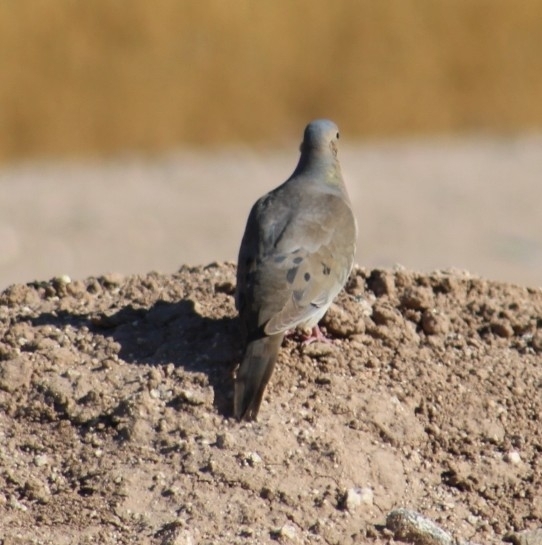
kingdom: Animalia
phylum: Chordata
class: Aves
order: Columbiformes
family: Columbidae
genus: Zenaida
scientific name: Zenaida macroura
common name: Mourning dove
